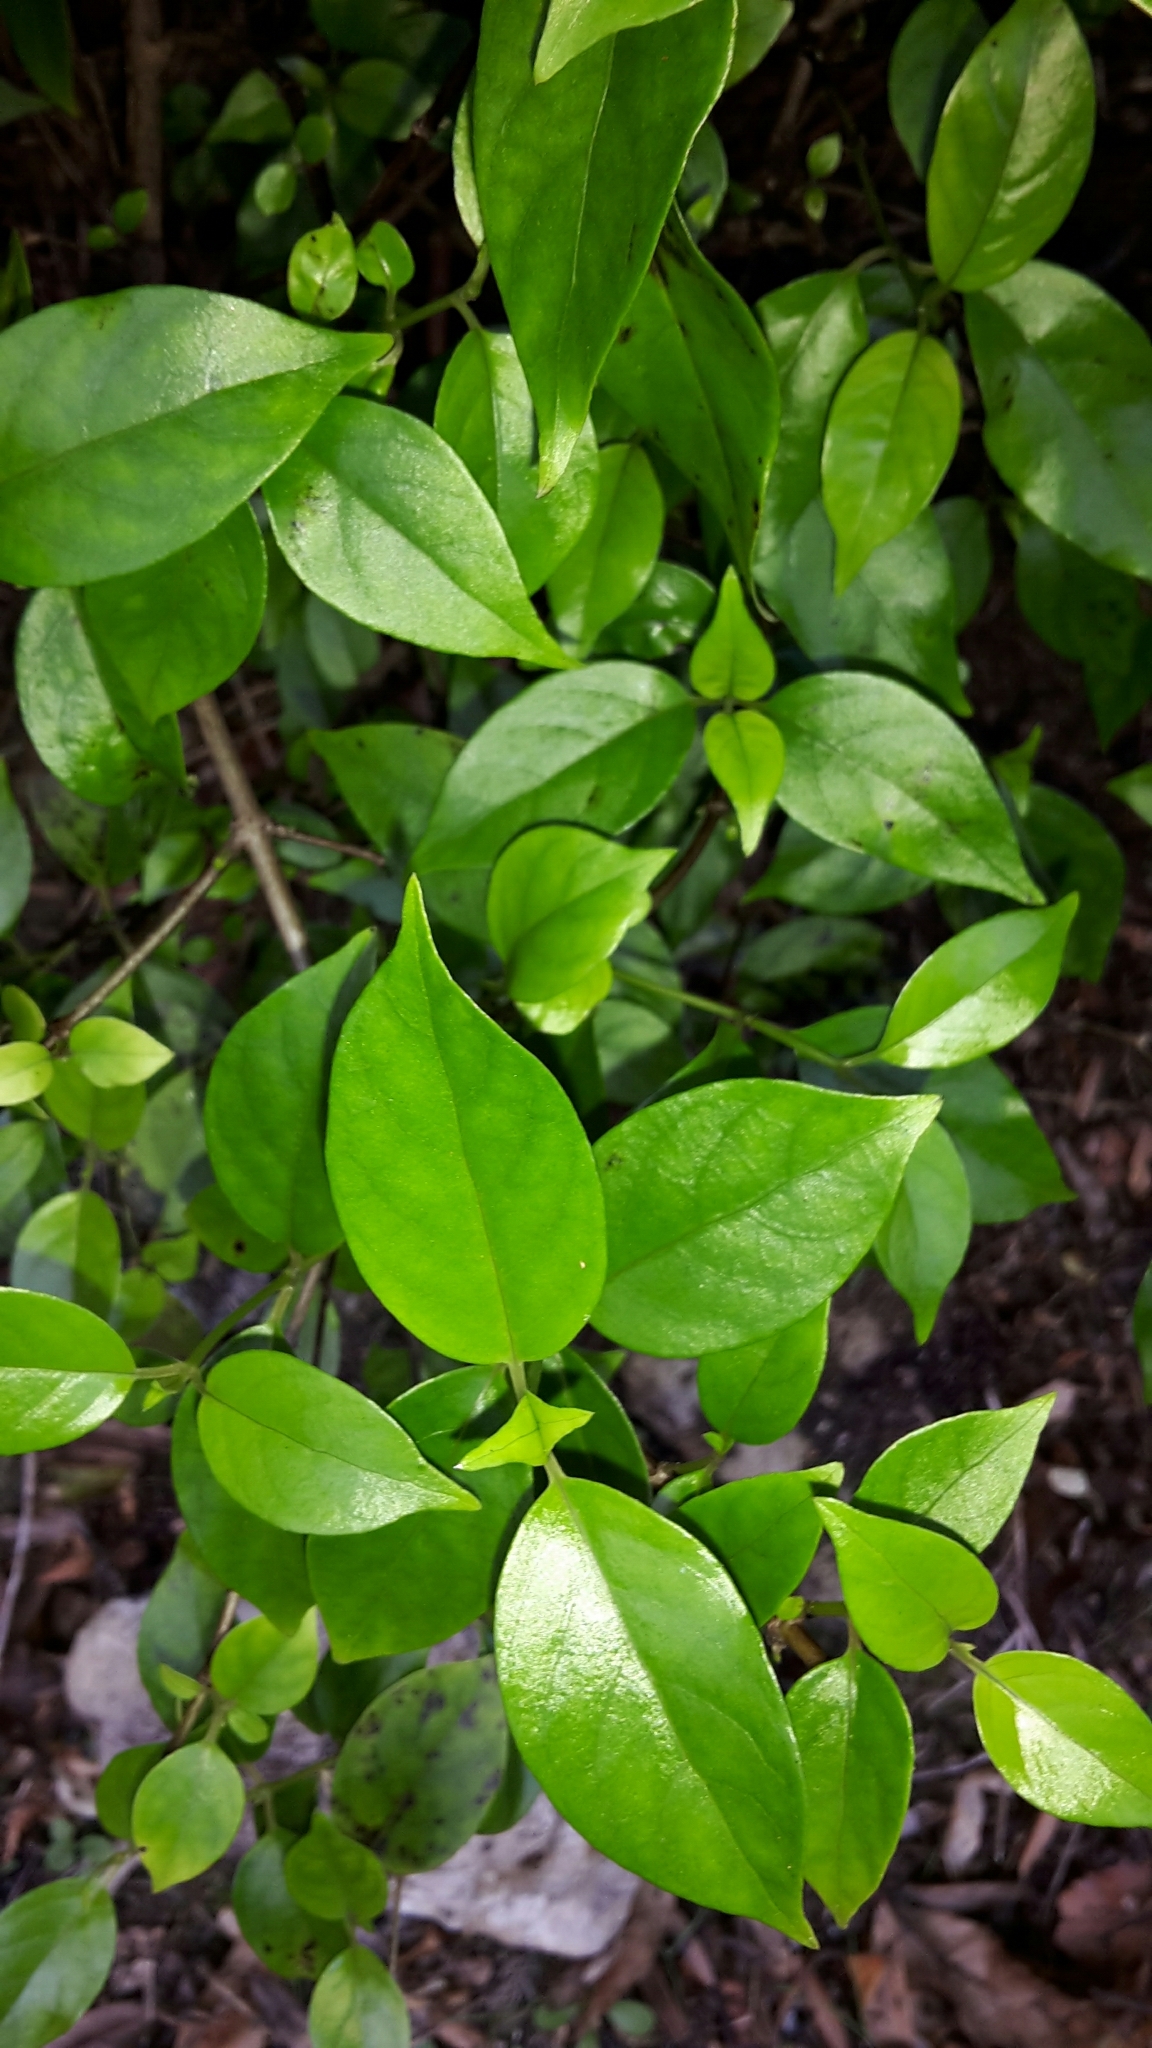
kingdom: Plantae
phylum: Tracheophyta
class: Magnoliopsida
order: Gentianales
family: Loganiaceae
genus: Geniostoma
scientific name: Geniostoma ligustrifolium
